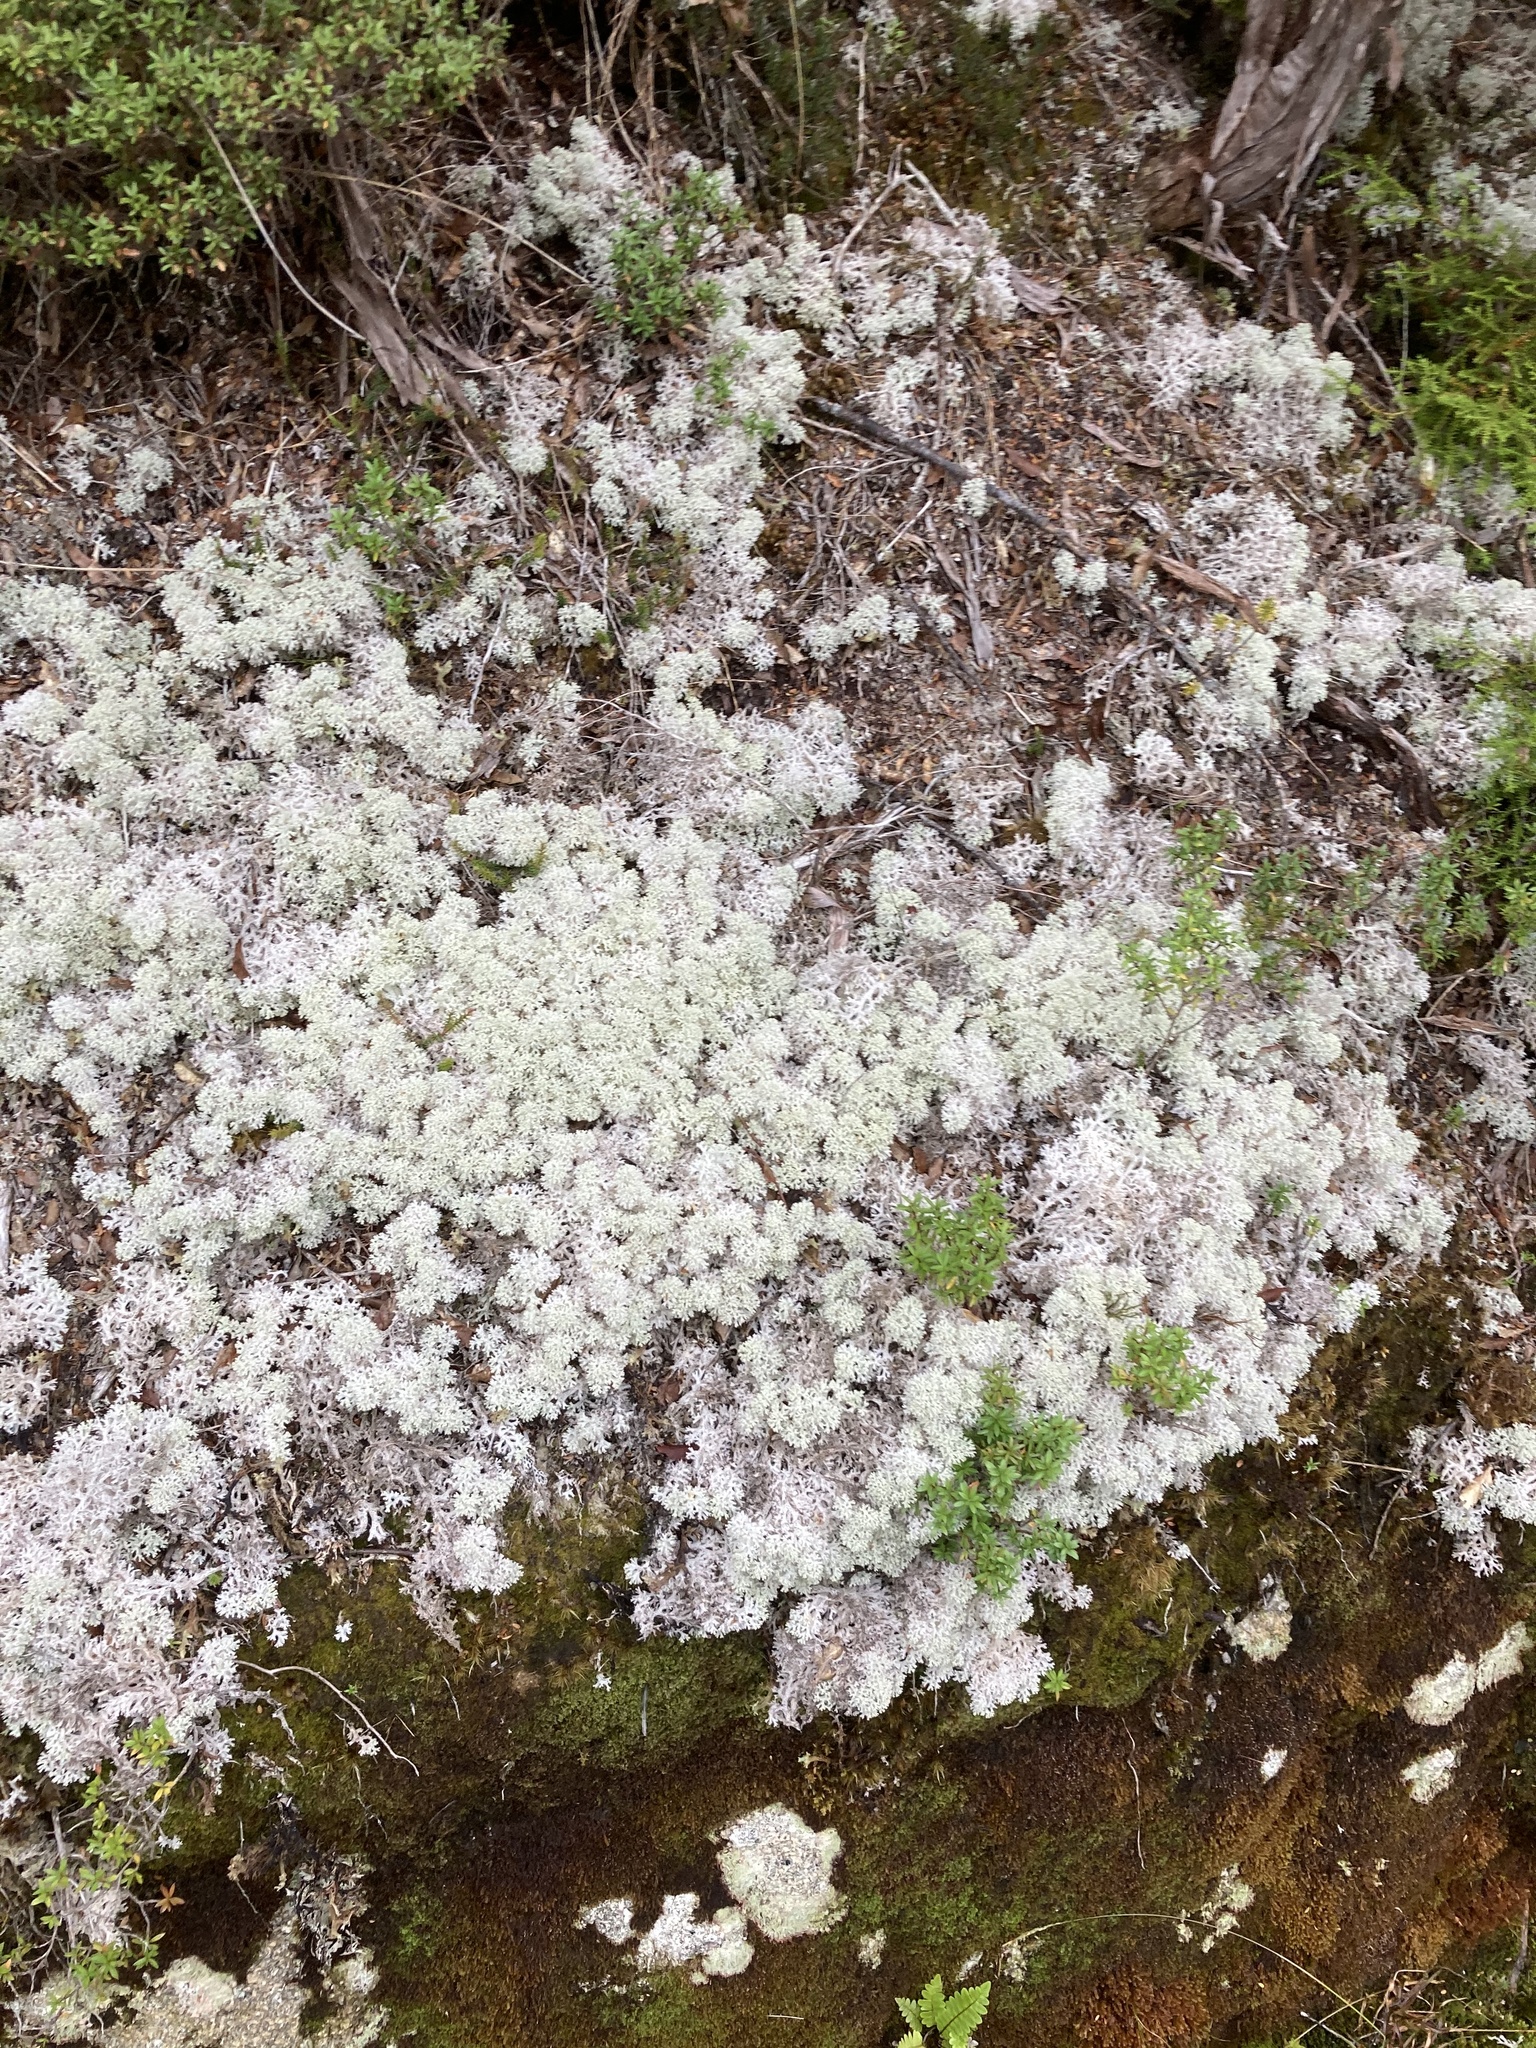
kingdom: Fungi
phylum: Ascomycota
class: Lecanoromycetes
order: Lecanorales
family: Cladoniaceae
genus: Pulchrocladia
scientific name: Pulchrocladia retipora
